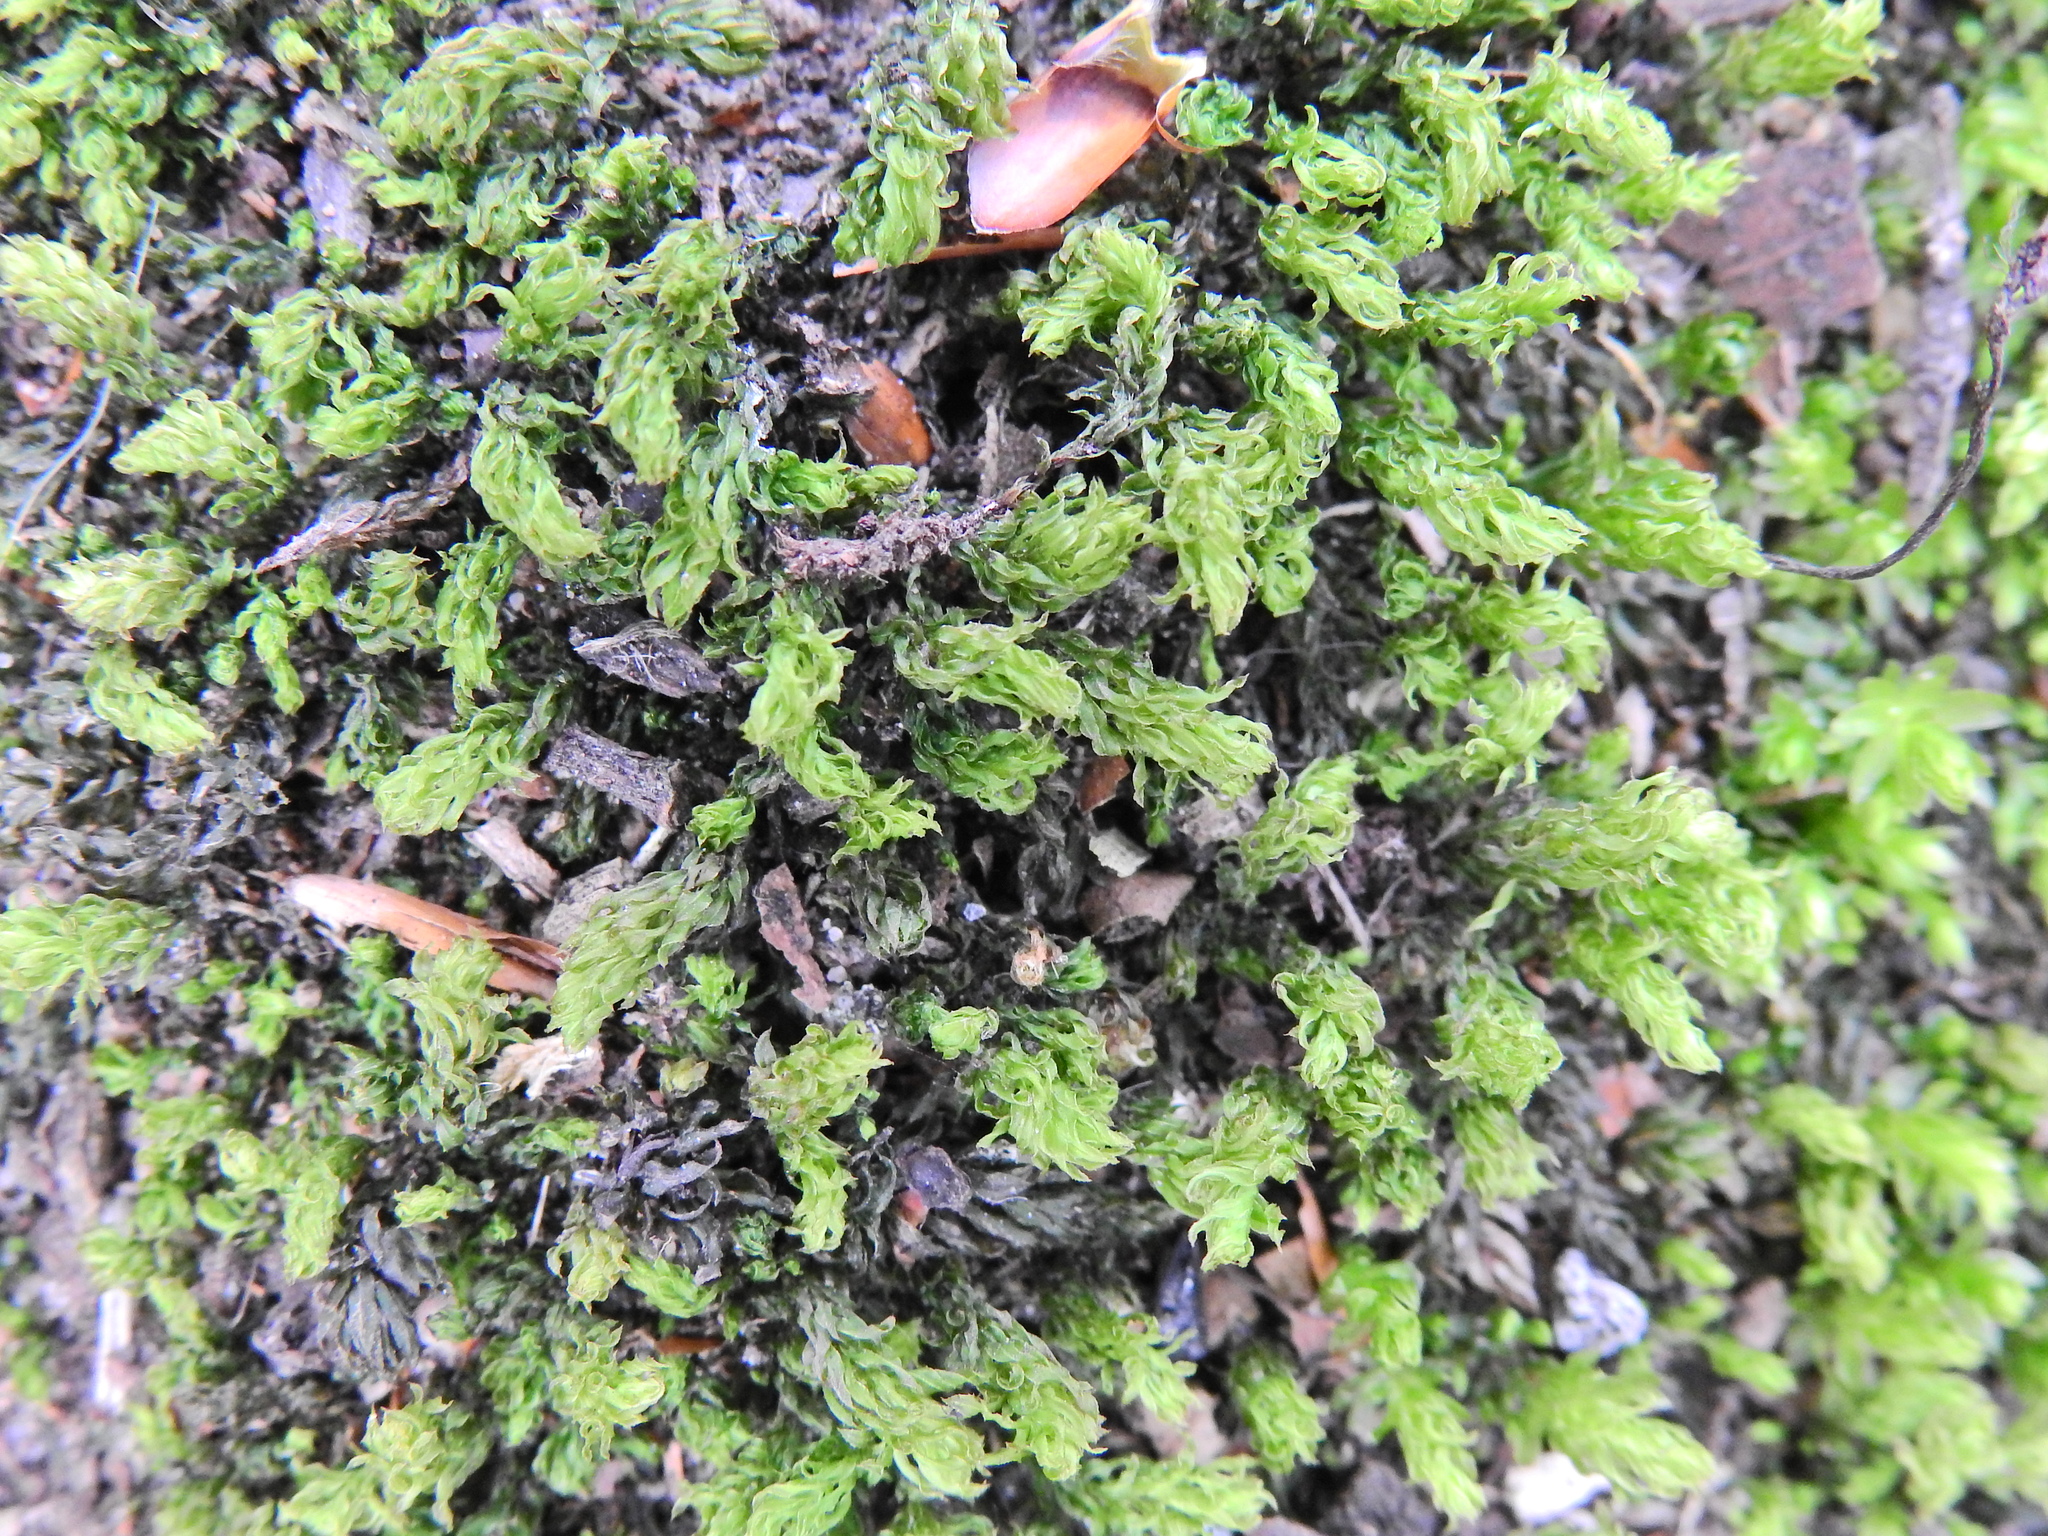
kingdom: Plantae
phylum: Bryophyta
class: Bryopsida
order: Bryales
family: Mniaceae
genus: Mnium
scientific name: Mnium hornum
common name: Swan's-neck leafy moss
